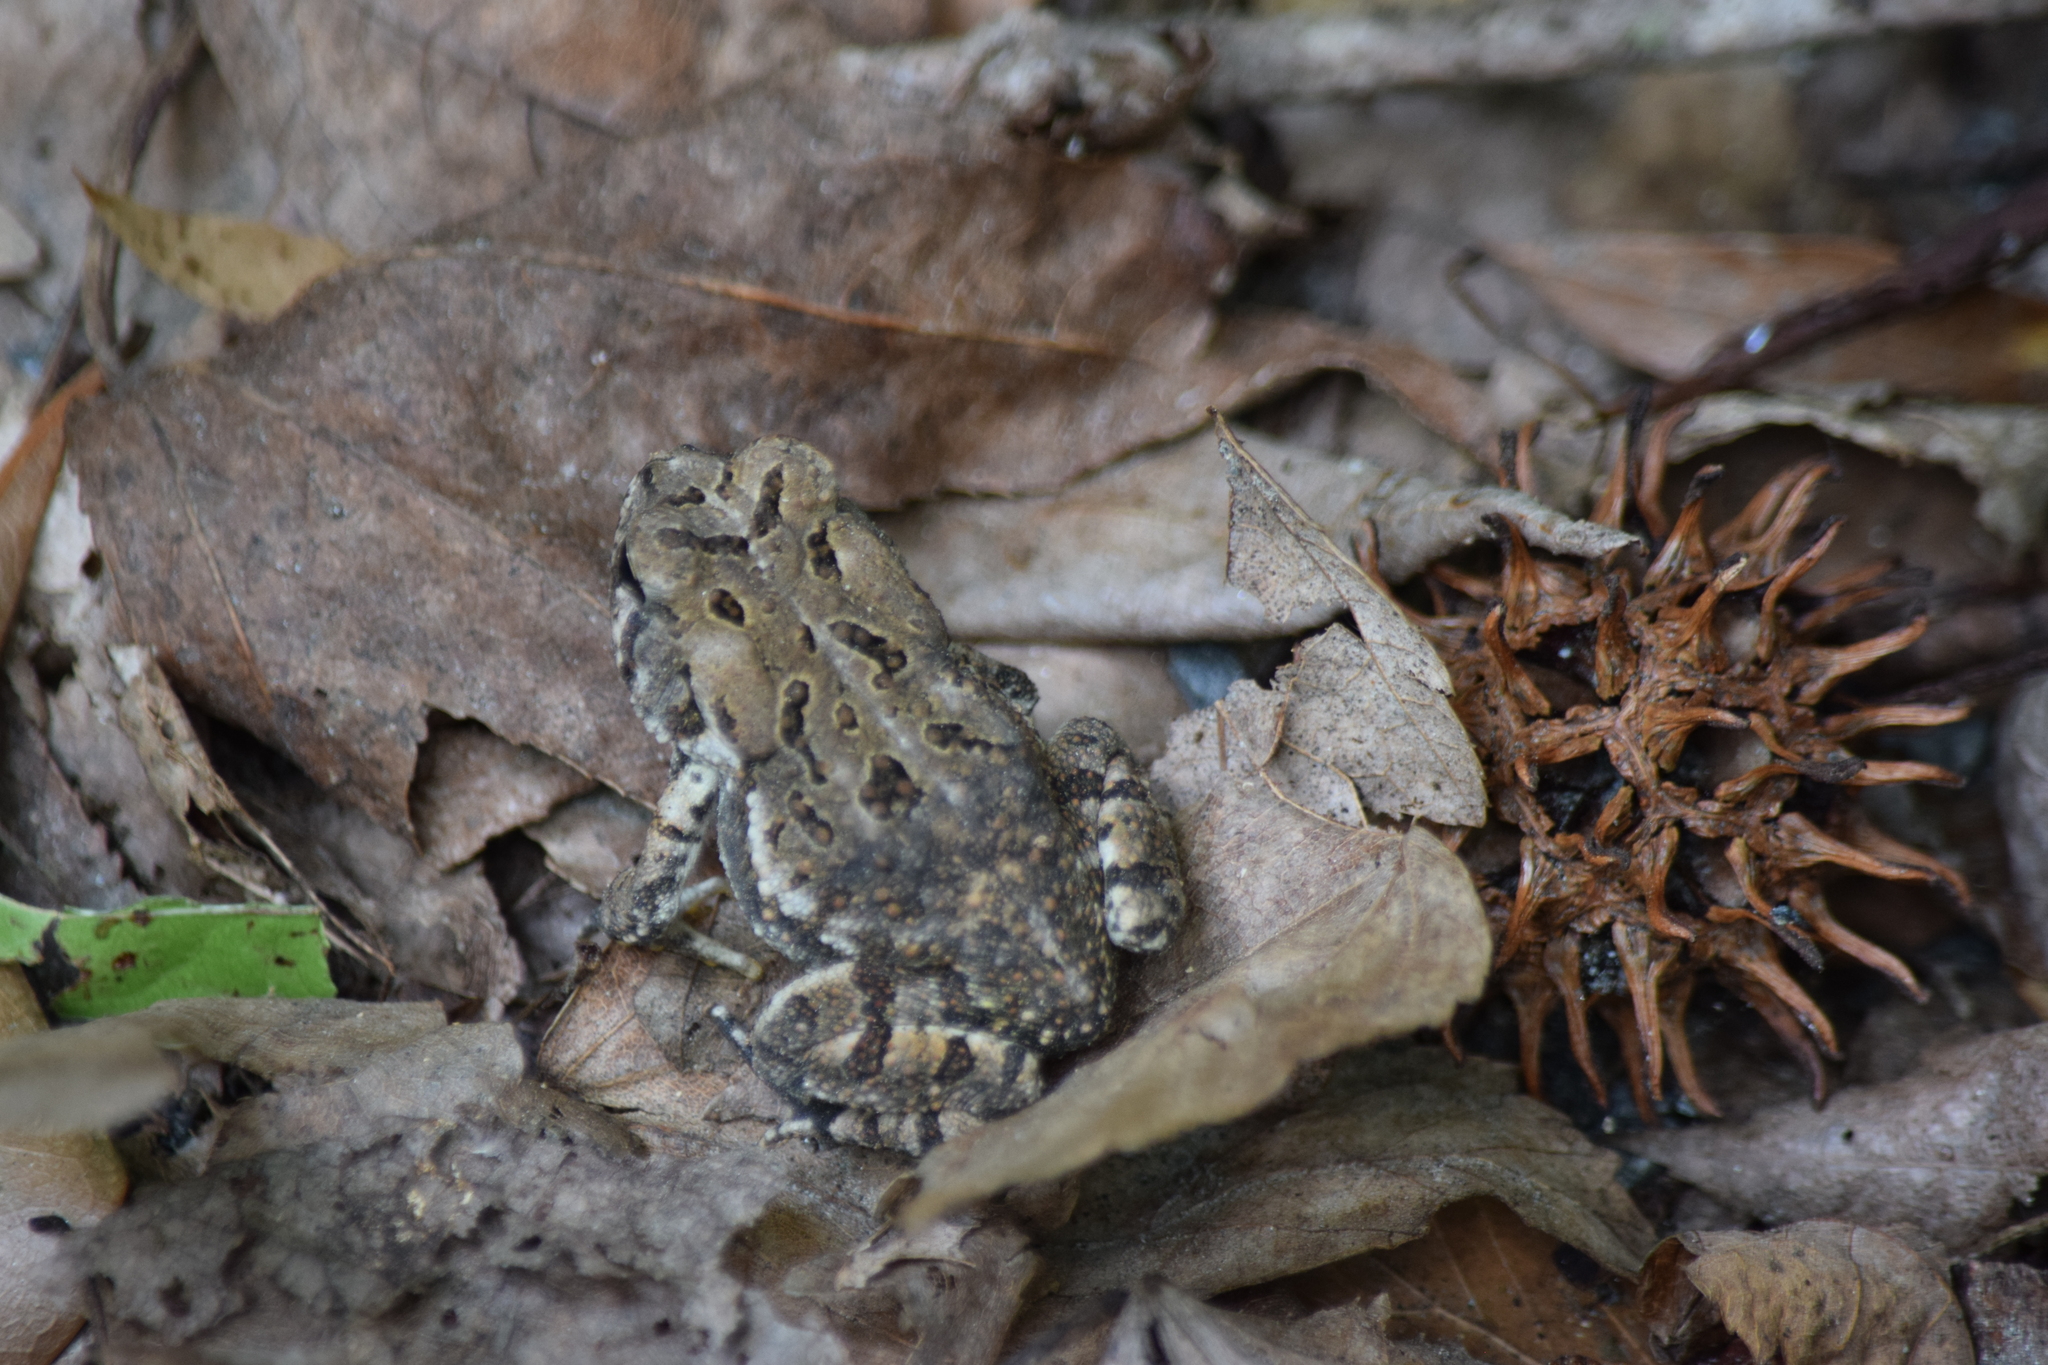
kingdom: Animalia
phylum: Chordata
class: Amphibia
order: Anura
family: Bufonidae
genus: Anaxyrus
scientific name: Anaxyrus fowleri
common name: Fowler's toad
